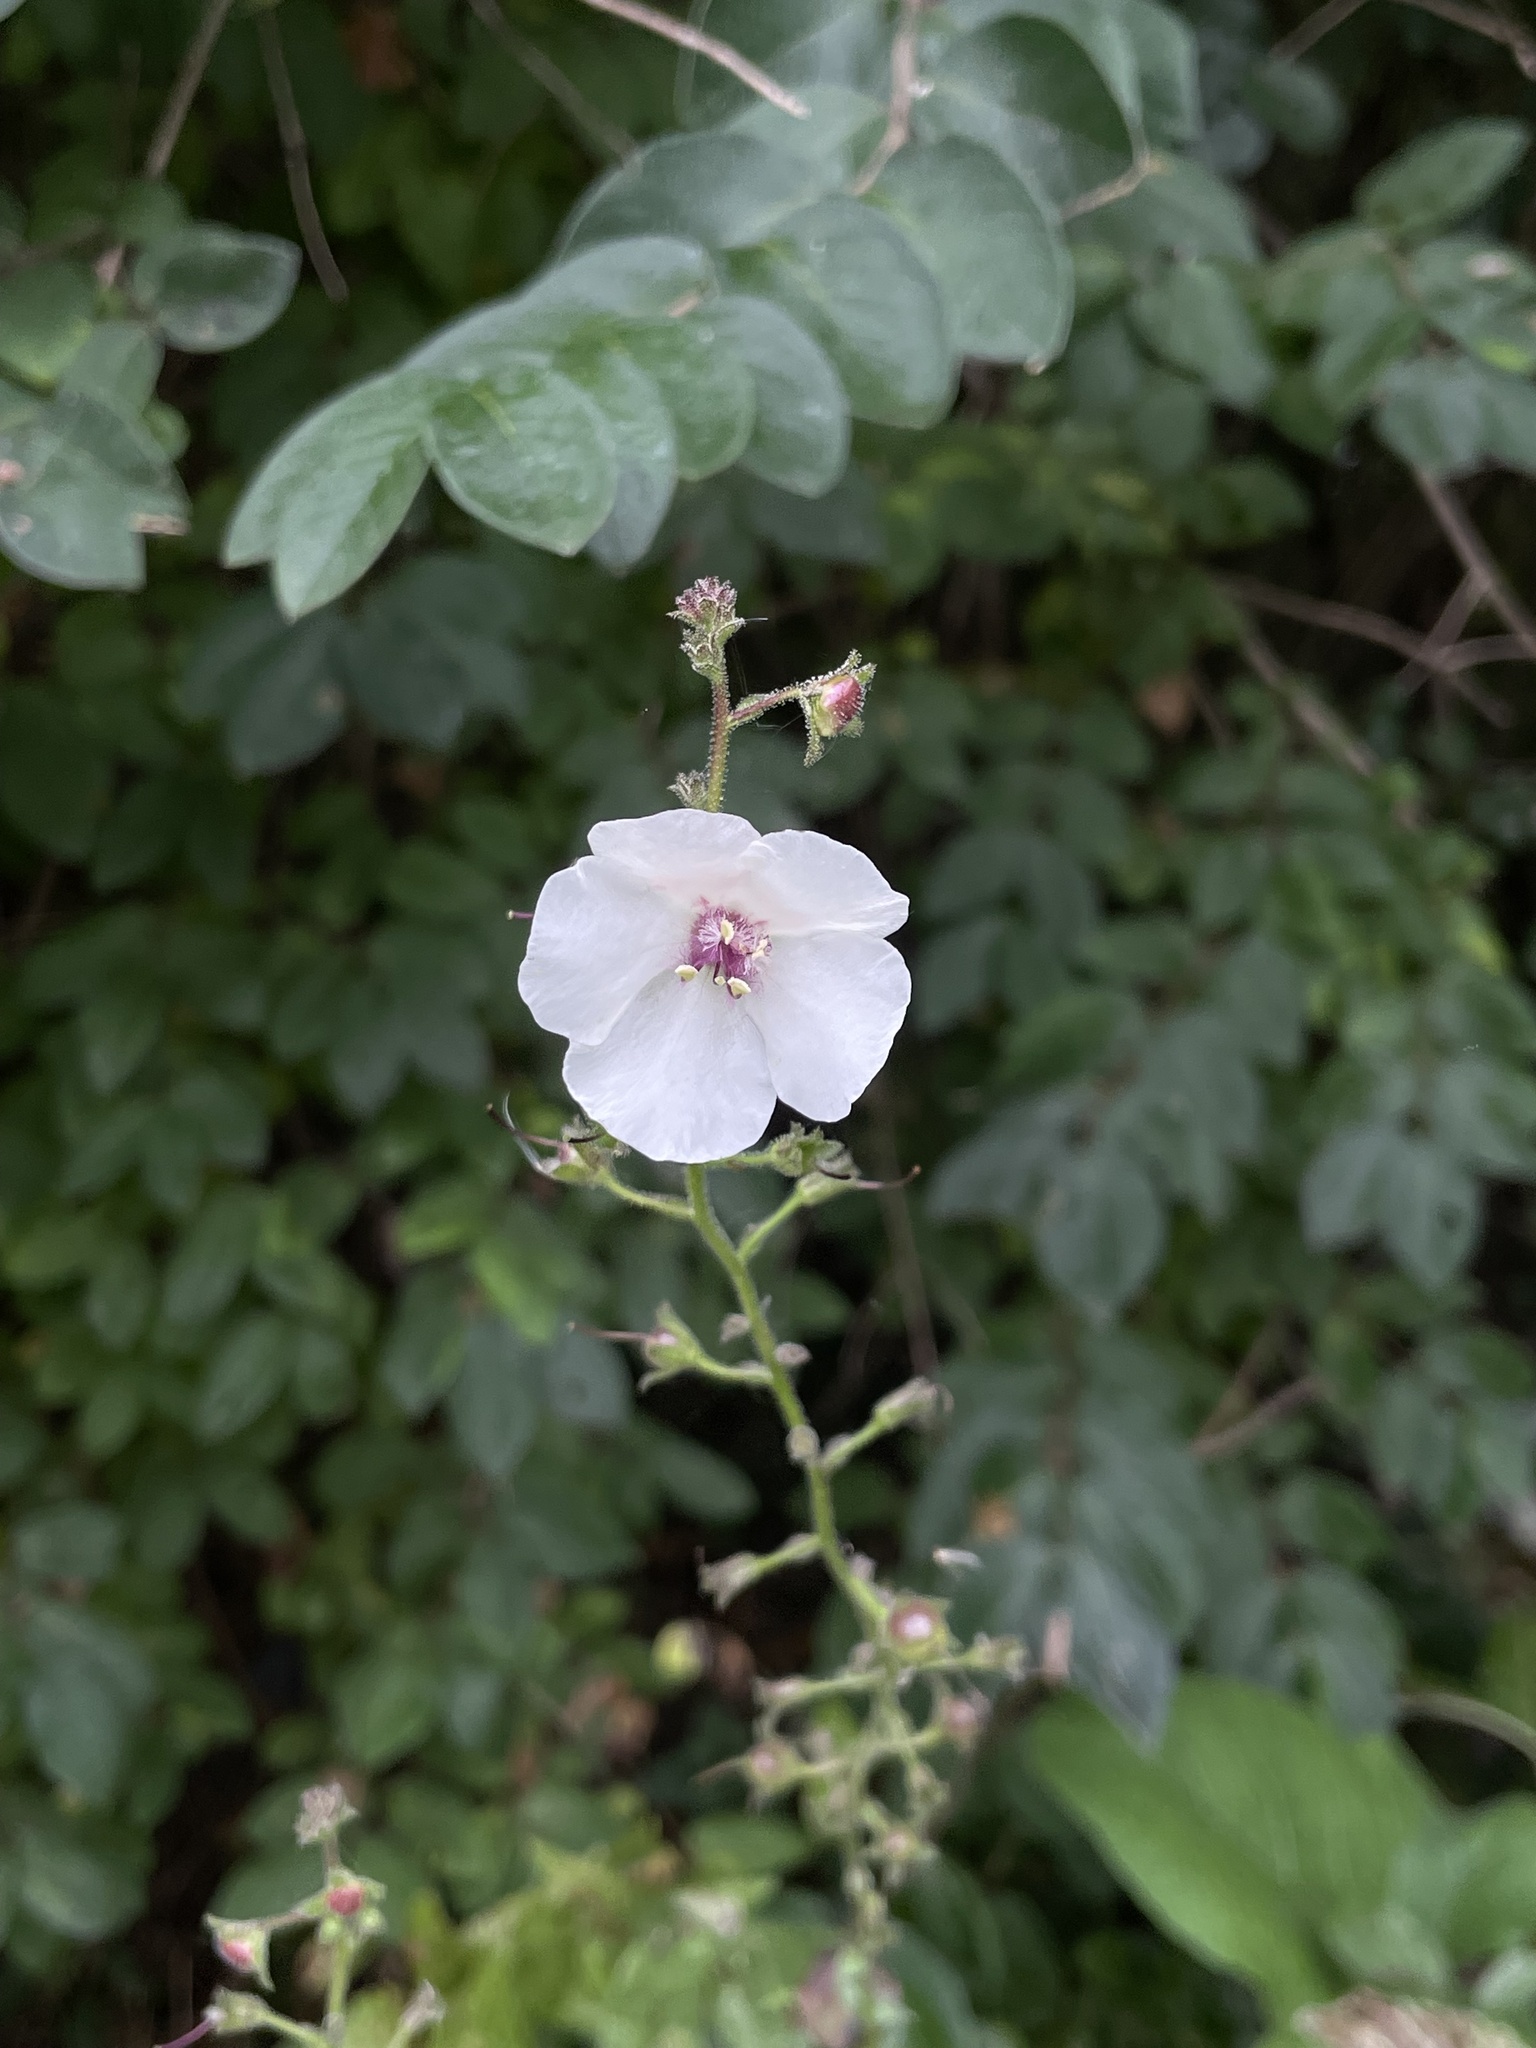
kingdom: Plantae
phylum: Tracheophyta
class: Magnoliopsida
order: Lamiales
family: Scrophulariaceae
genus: Verbascum
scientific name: Verbascum blattaria
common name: Moth mullein
